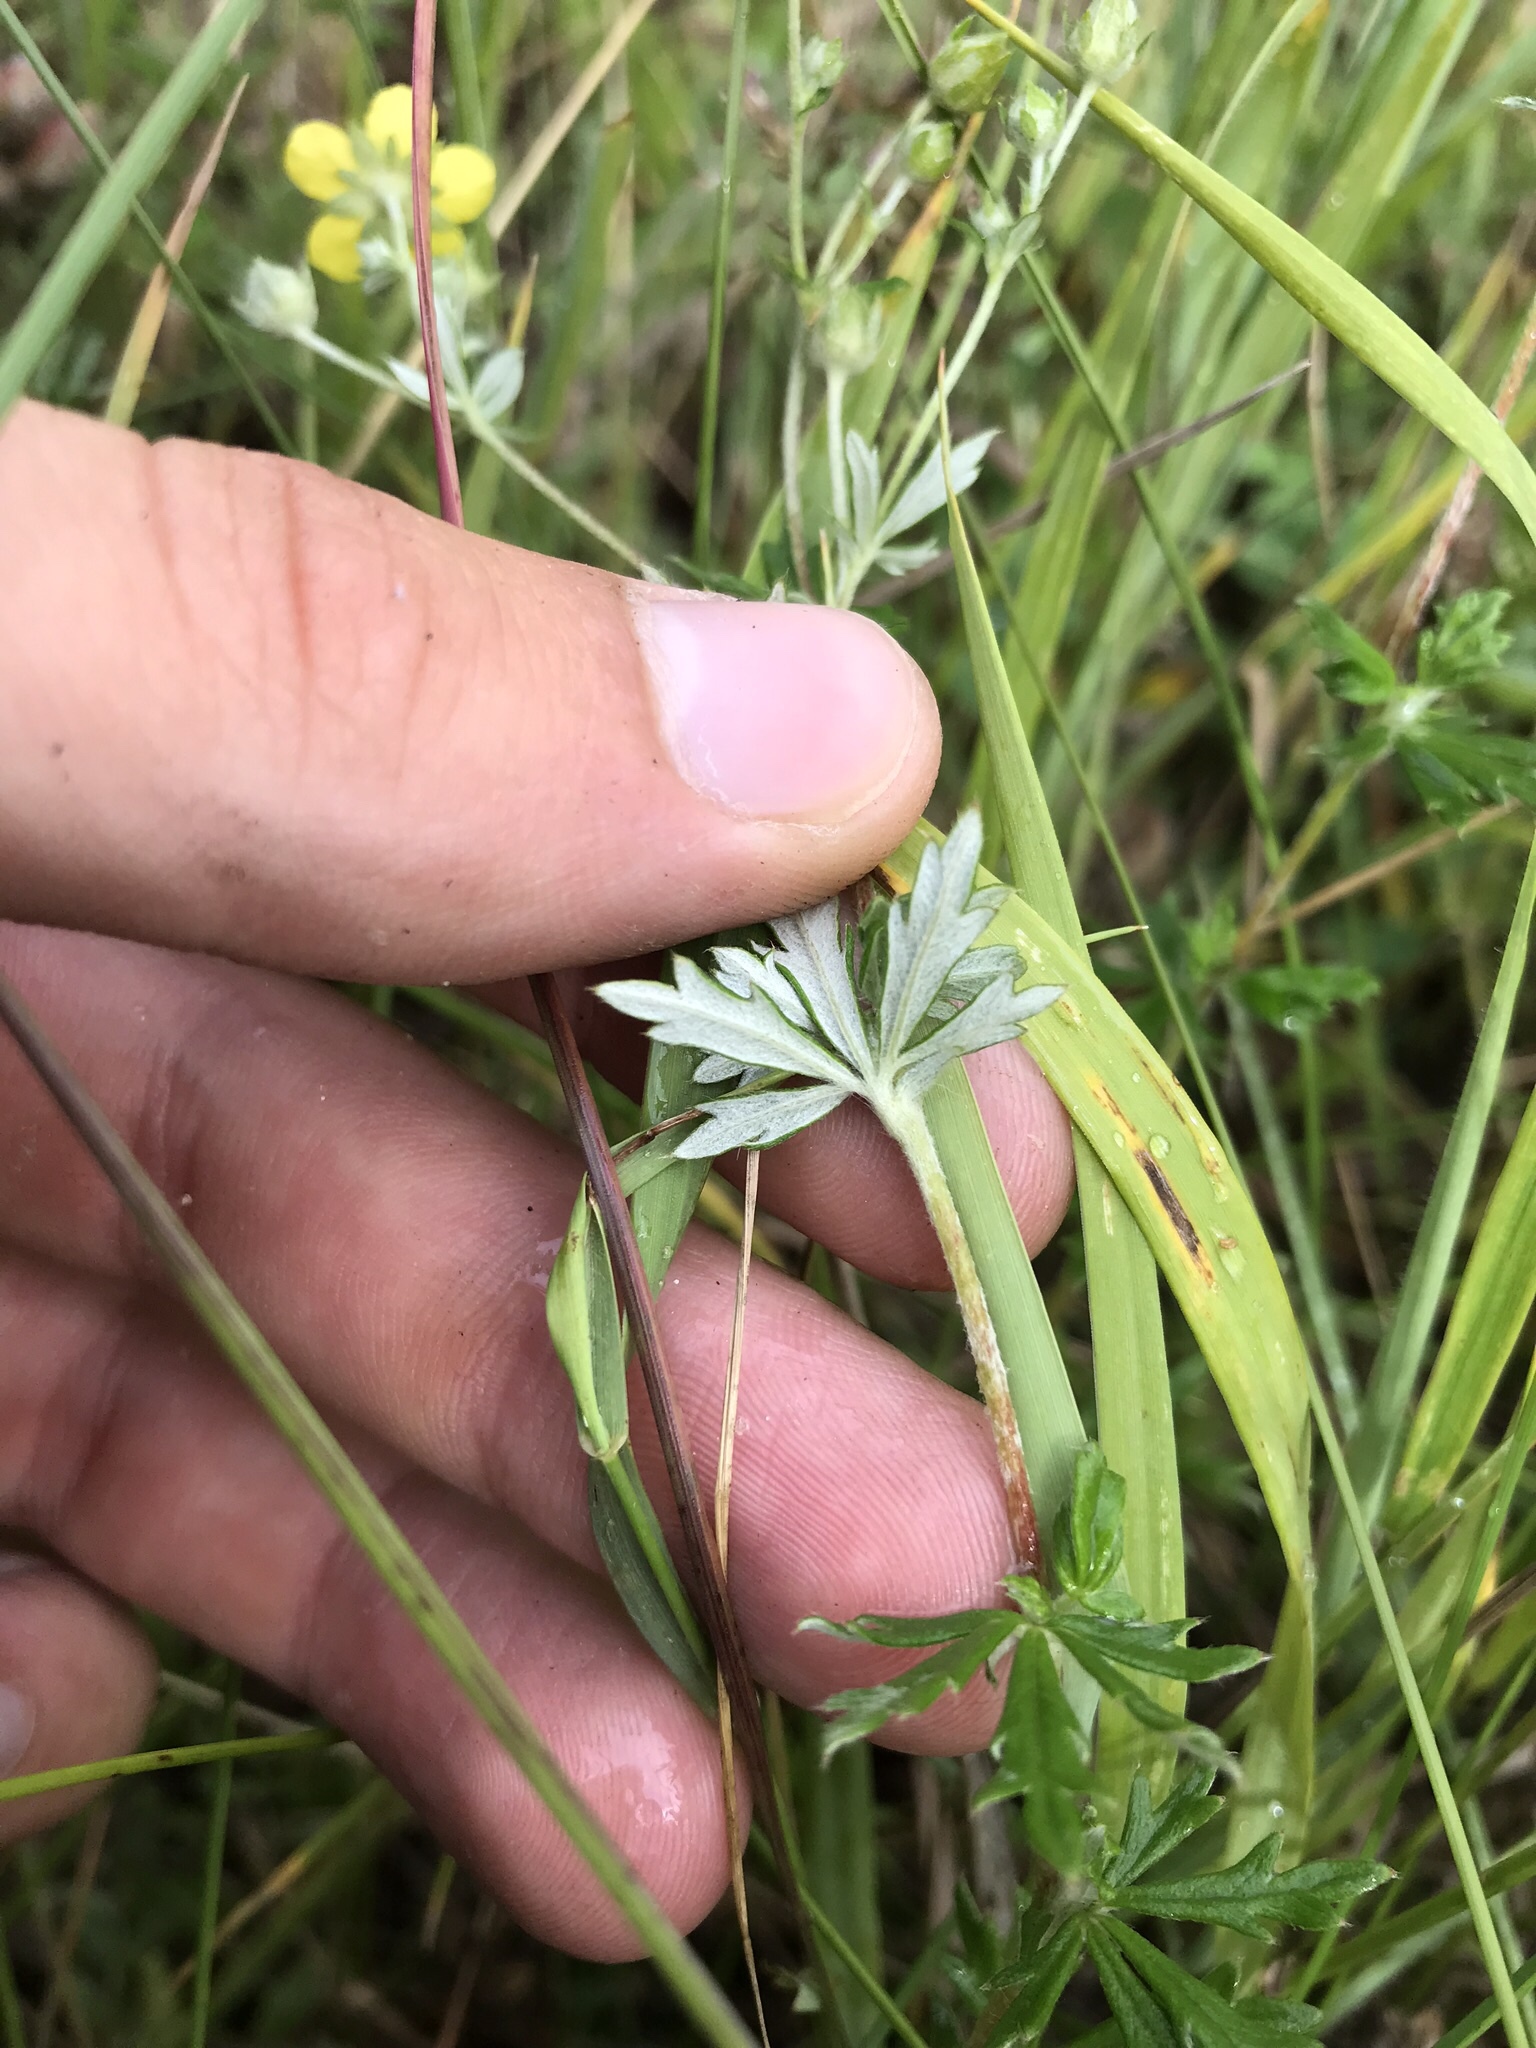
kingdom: Plantae
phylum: Tracheophyta
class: Magnoliopsida
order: Rosales
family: Rosaceae
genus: Potentilla
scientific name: Potentilla argentea
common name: Hoary cinquefoil
